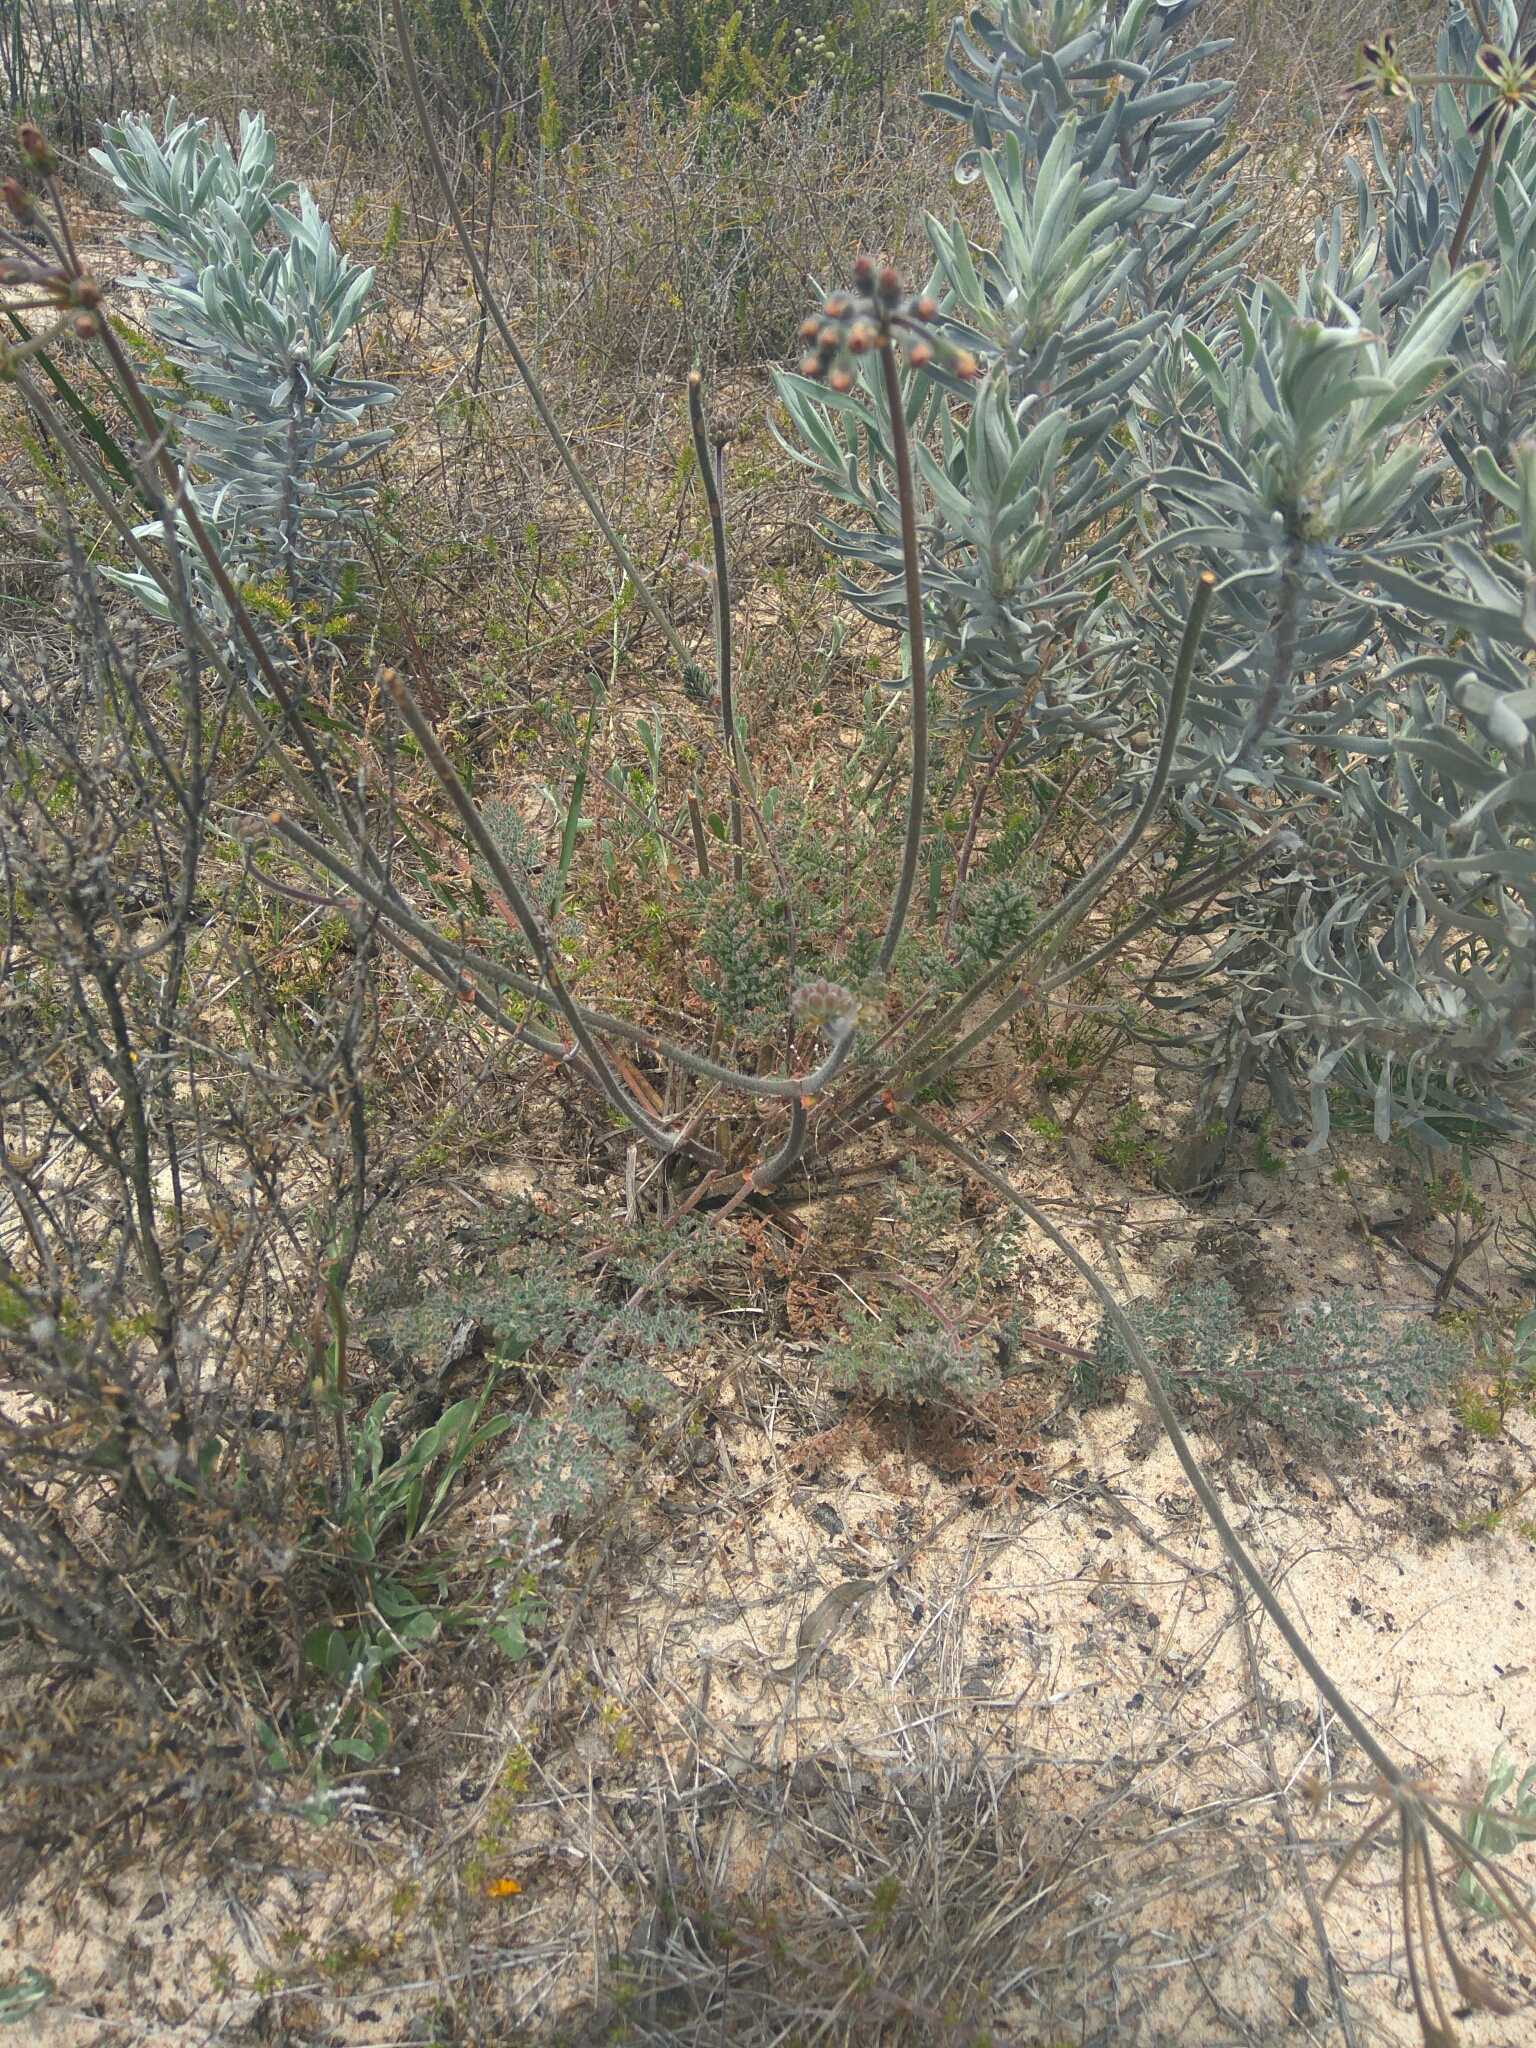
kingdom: Plantae
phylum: Tracheophyta
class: Magnoliopsida
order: Geraniales
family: Geraniaceae
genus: Pelargonium
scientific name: Pelargonium triste
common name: Night-scent pelargonium
